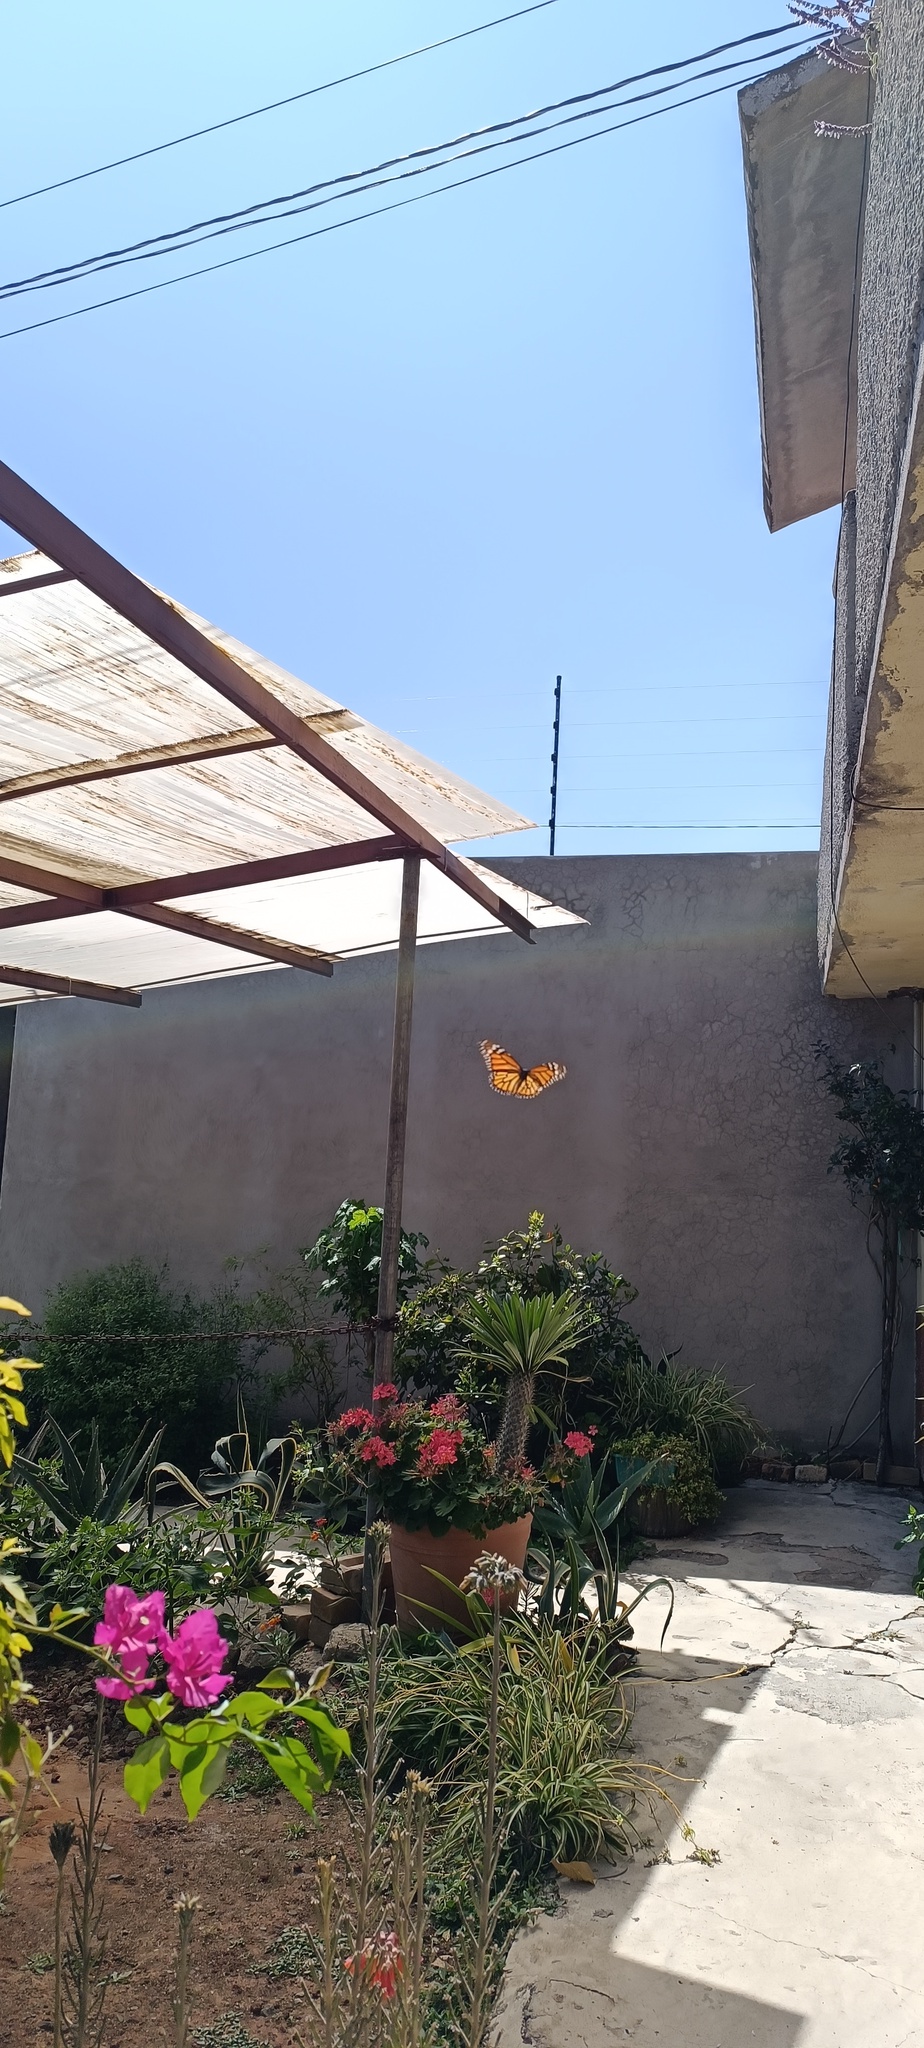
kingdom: Animalia
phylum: Arthropoda
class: Insecta
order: Lepidoptera
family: Nymphalidae
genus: Danaus
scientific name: Danaus plexippus
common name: Monarch
